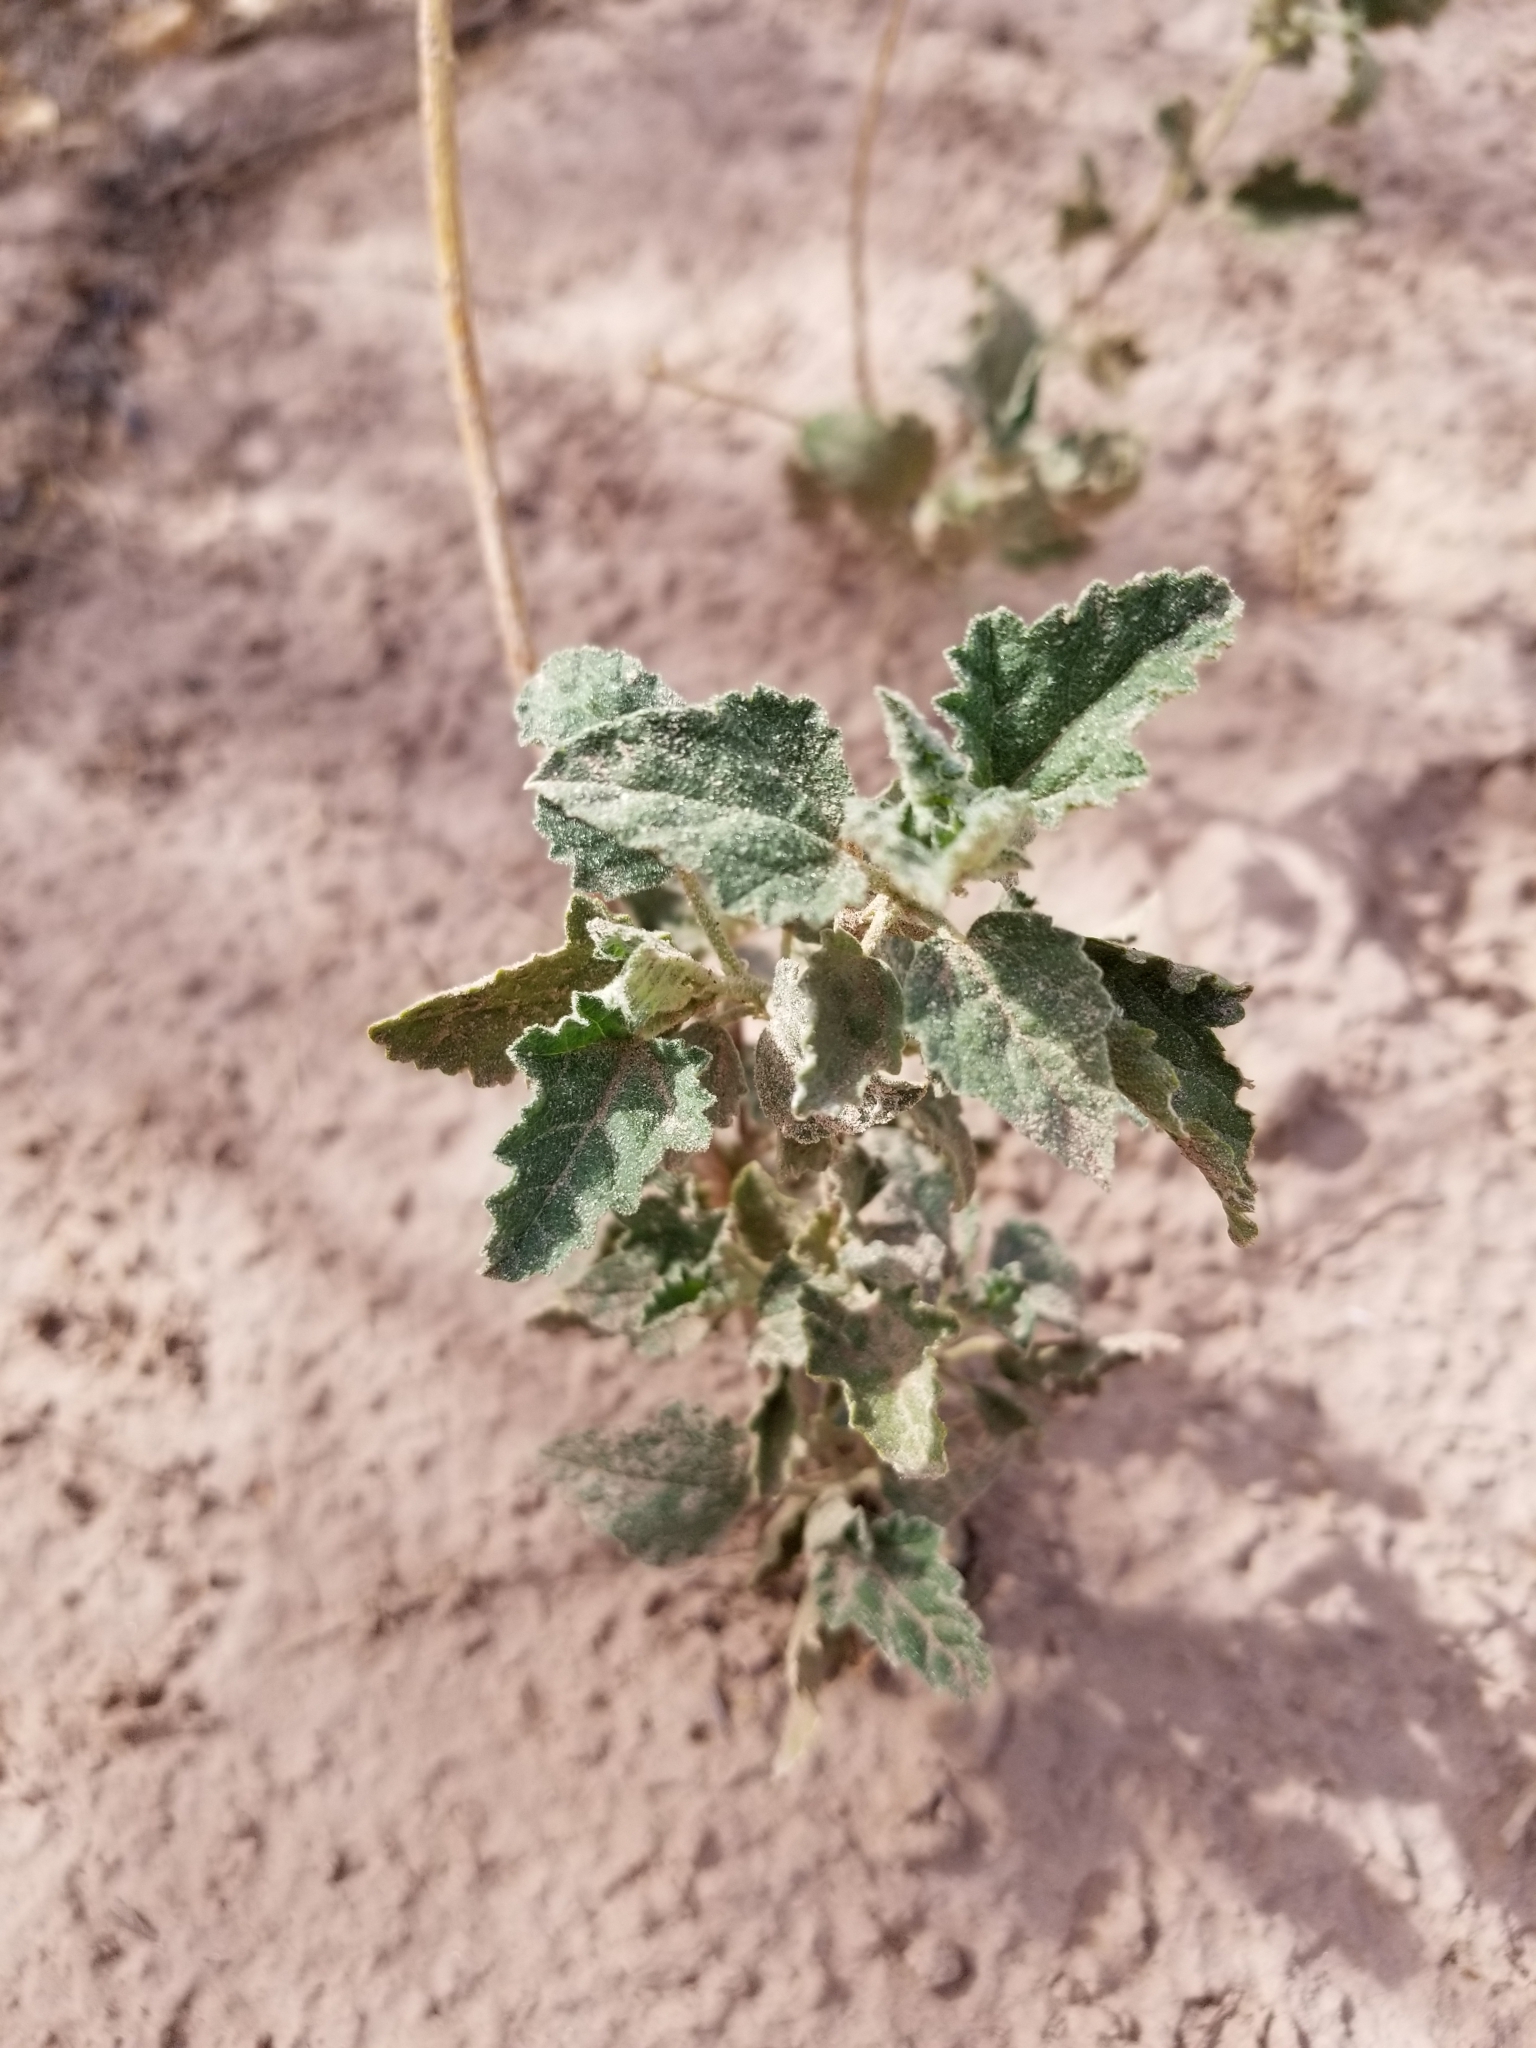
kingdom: Plantae
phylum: Tracheophyta
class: Magnoliopsida
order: Malvales
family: Malvaceae
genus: Sphaeralcea
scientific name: Sphaeralcea parvifolia
